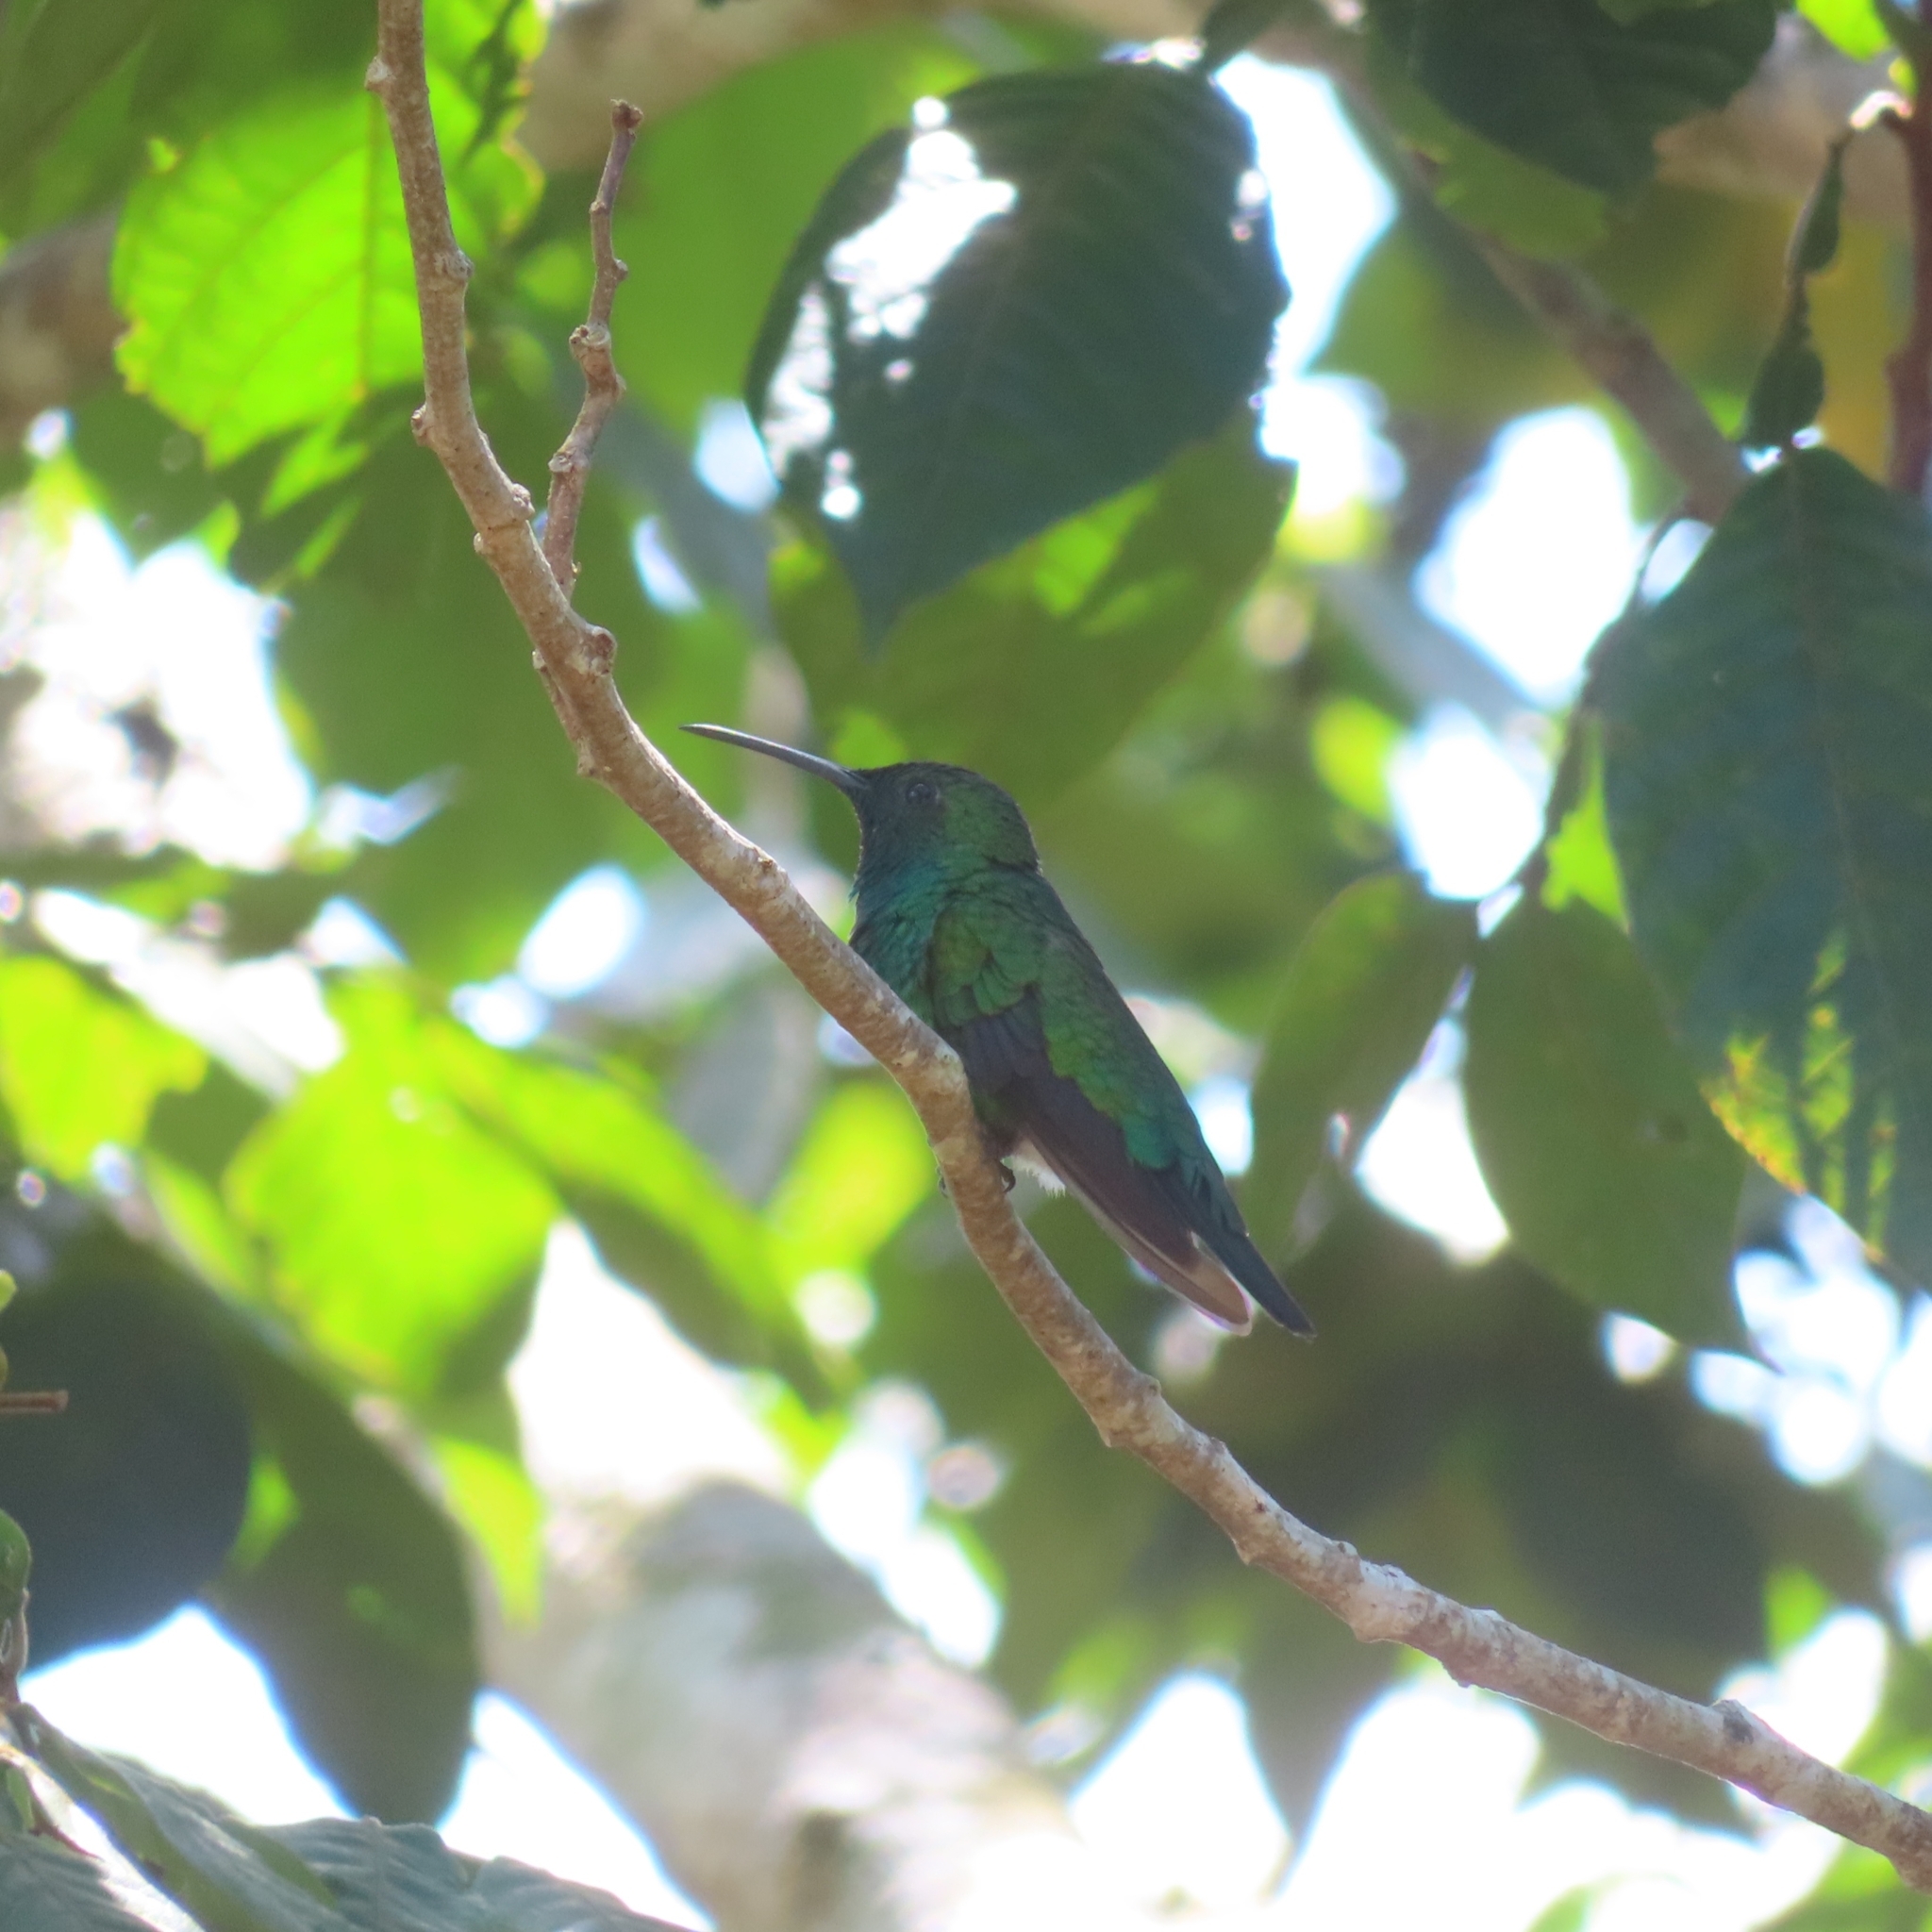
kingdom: Animalia
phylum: Chordata
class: Aves
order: Apodiformes
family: Trochilidae
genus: Anthracothorax
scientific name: Anthracothorax viridis
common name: Green mango
